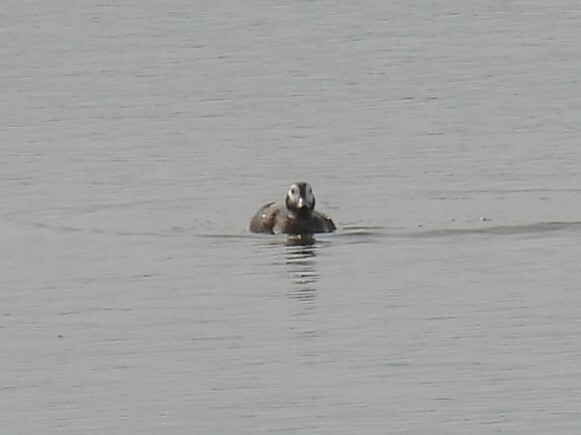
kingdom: Animalia
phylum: Chordata
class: Aves
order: Anseriformes
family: Anatidae
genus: Clangula
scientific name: Clangula hyemalis
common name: Long-tailed duck
